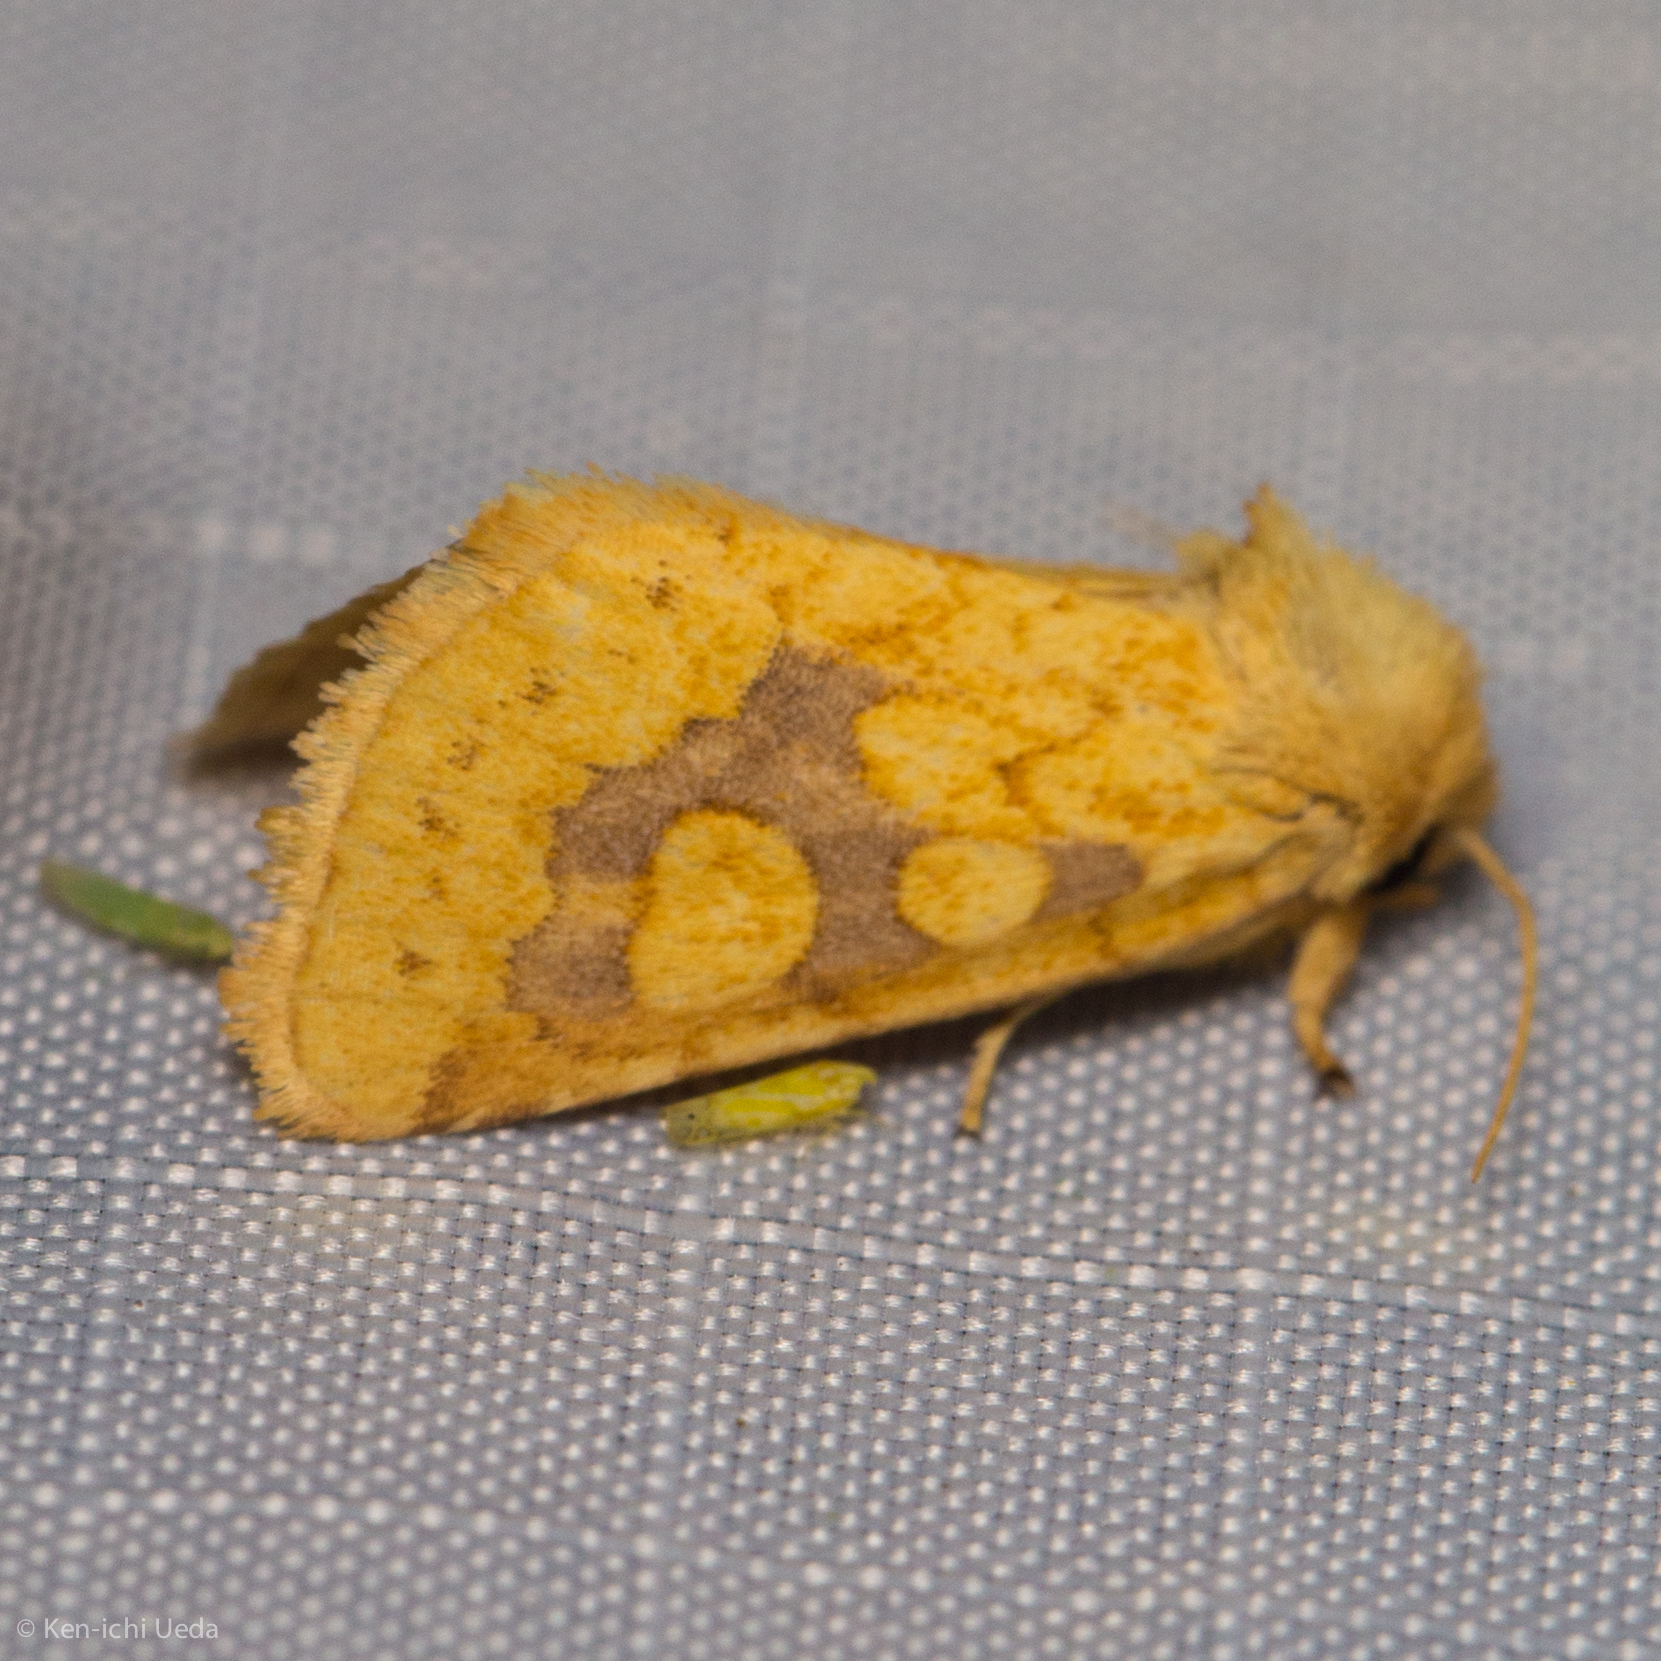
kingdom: Animalia
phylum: Arthropoda
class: Insecta
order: Lepidoptera
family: Noctuidae
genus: Nocloa
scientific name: Nocloa cordova
